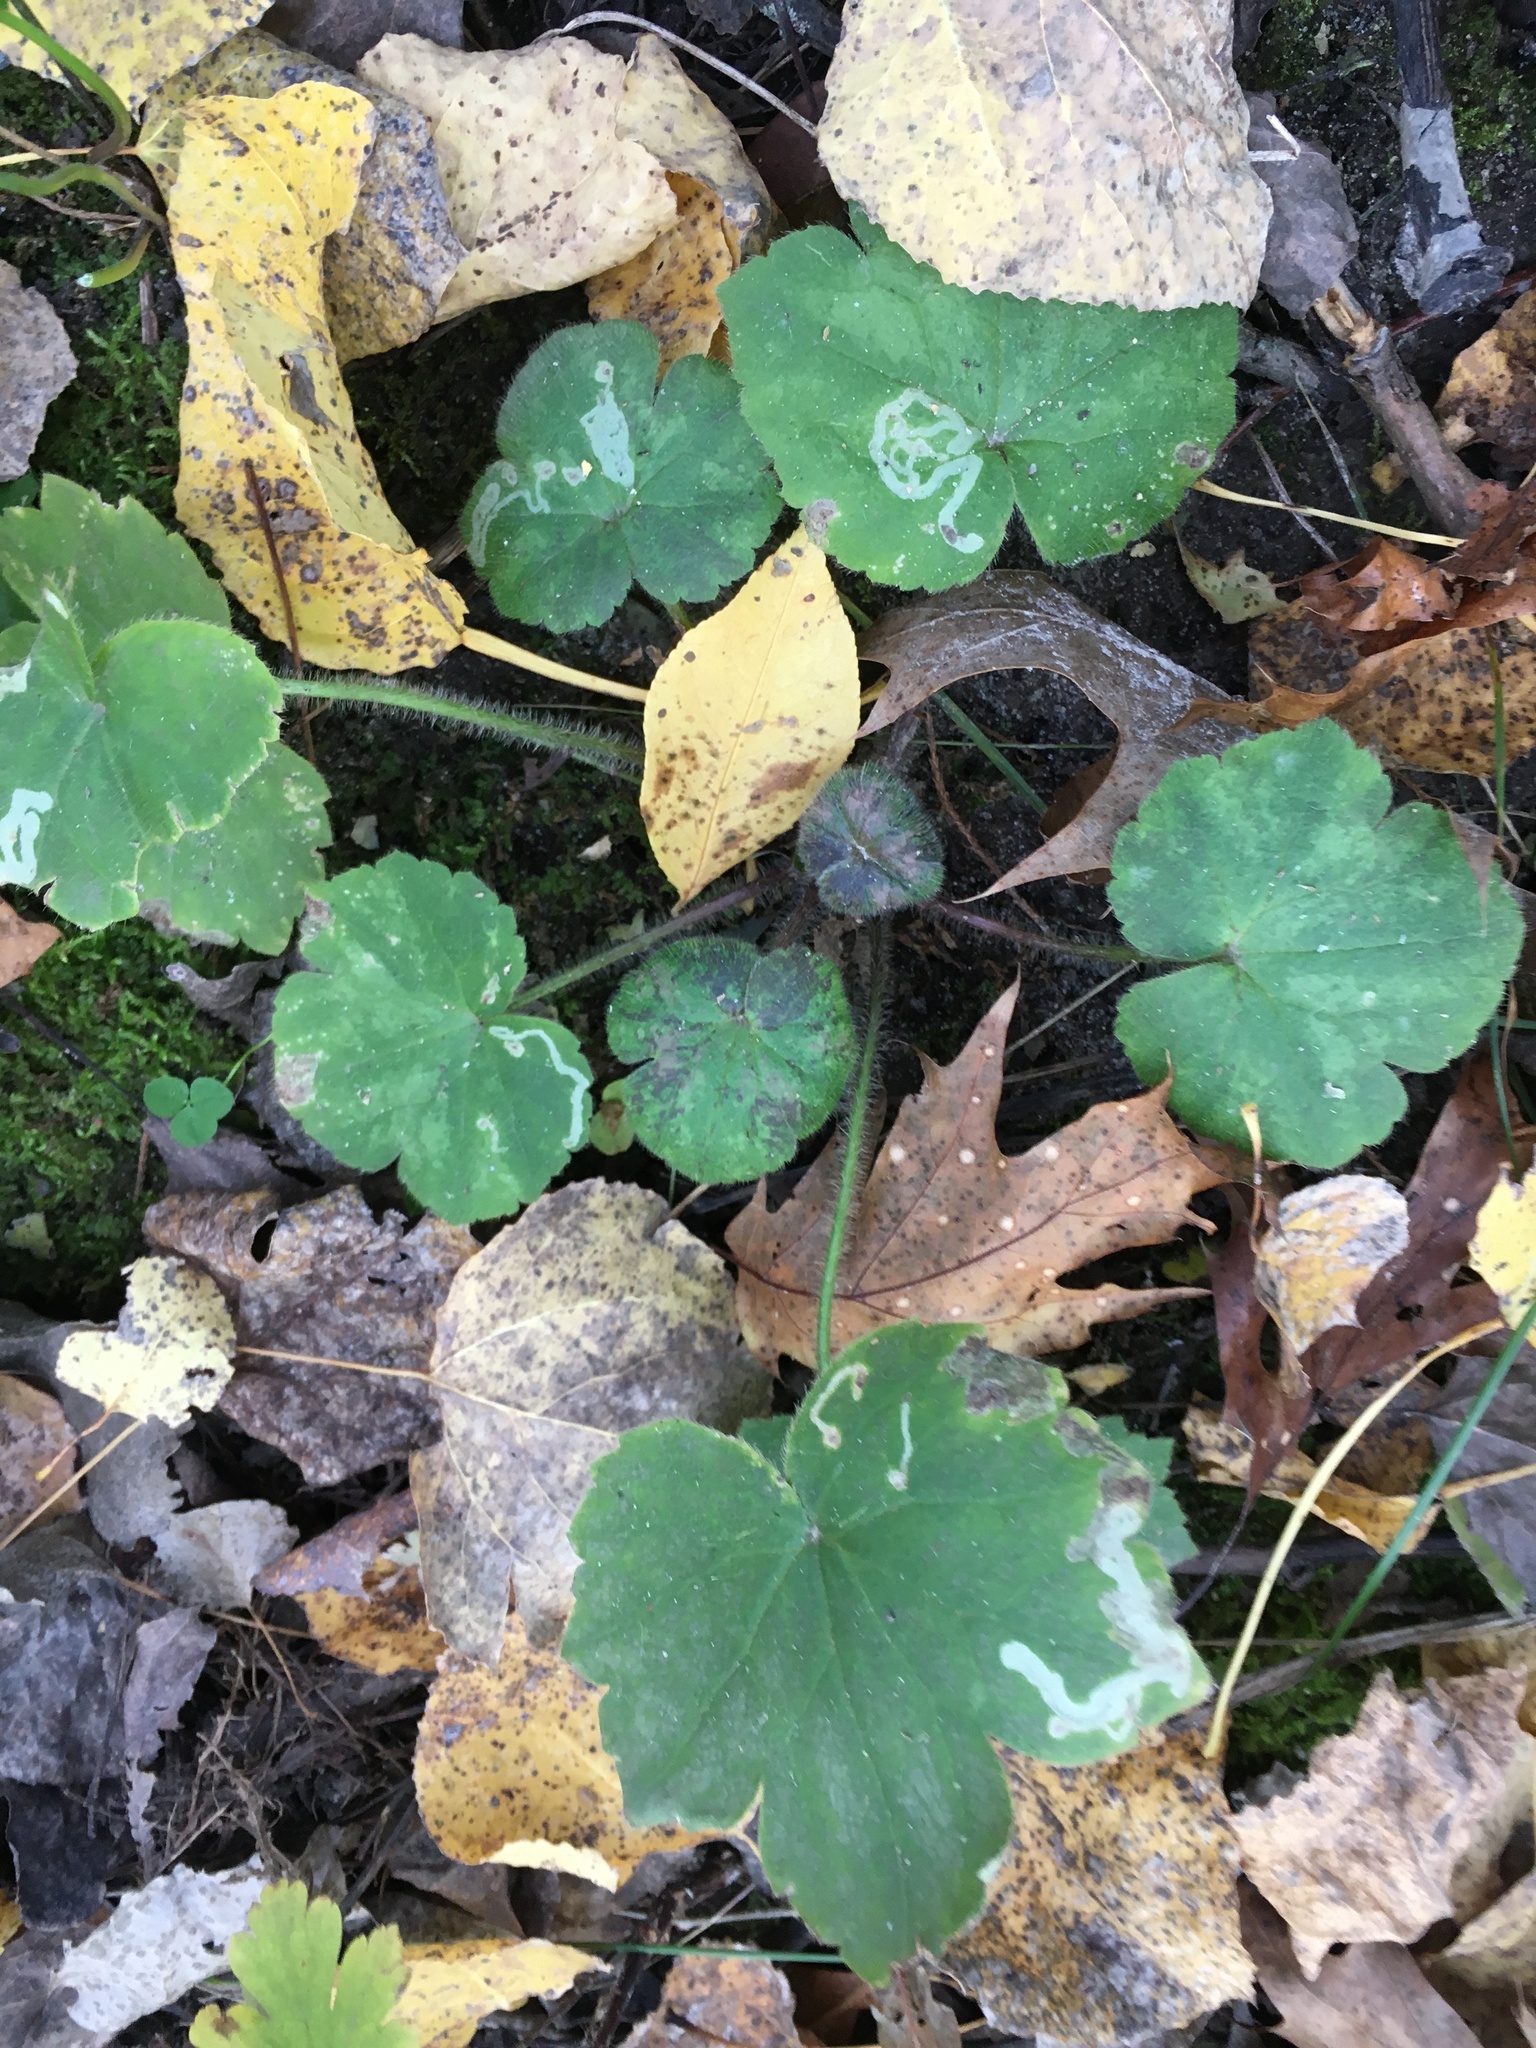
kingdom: Animalia
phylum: Arthropoda
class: Insecta
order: Diptera
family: Agromyzidae
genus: Phytomyza
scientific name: Phytomyza loewii
